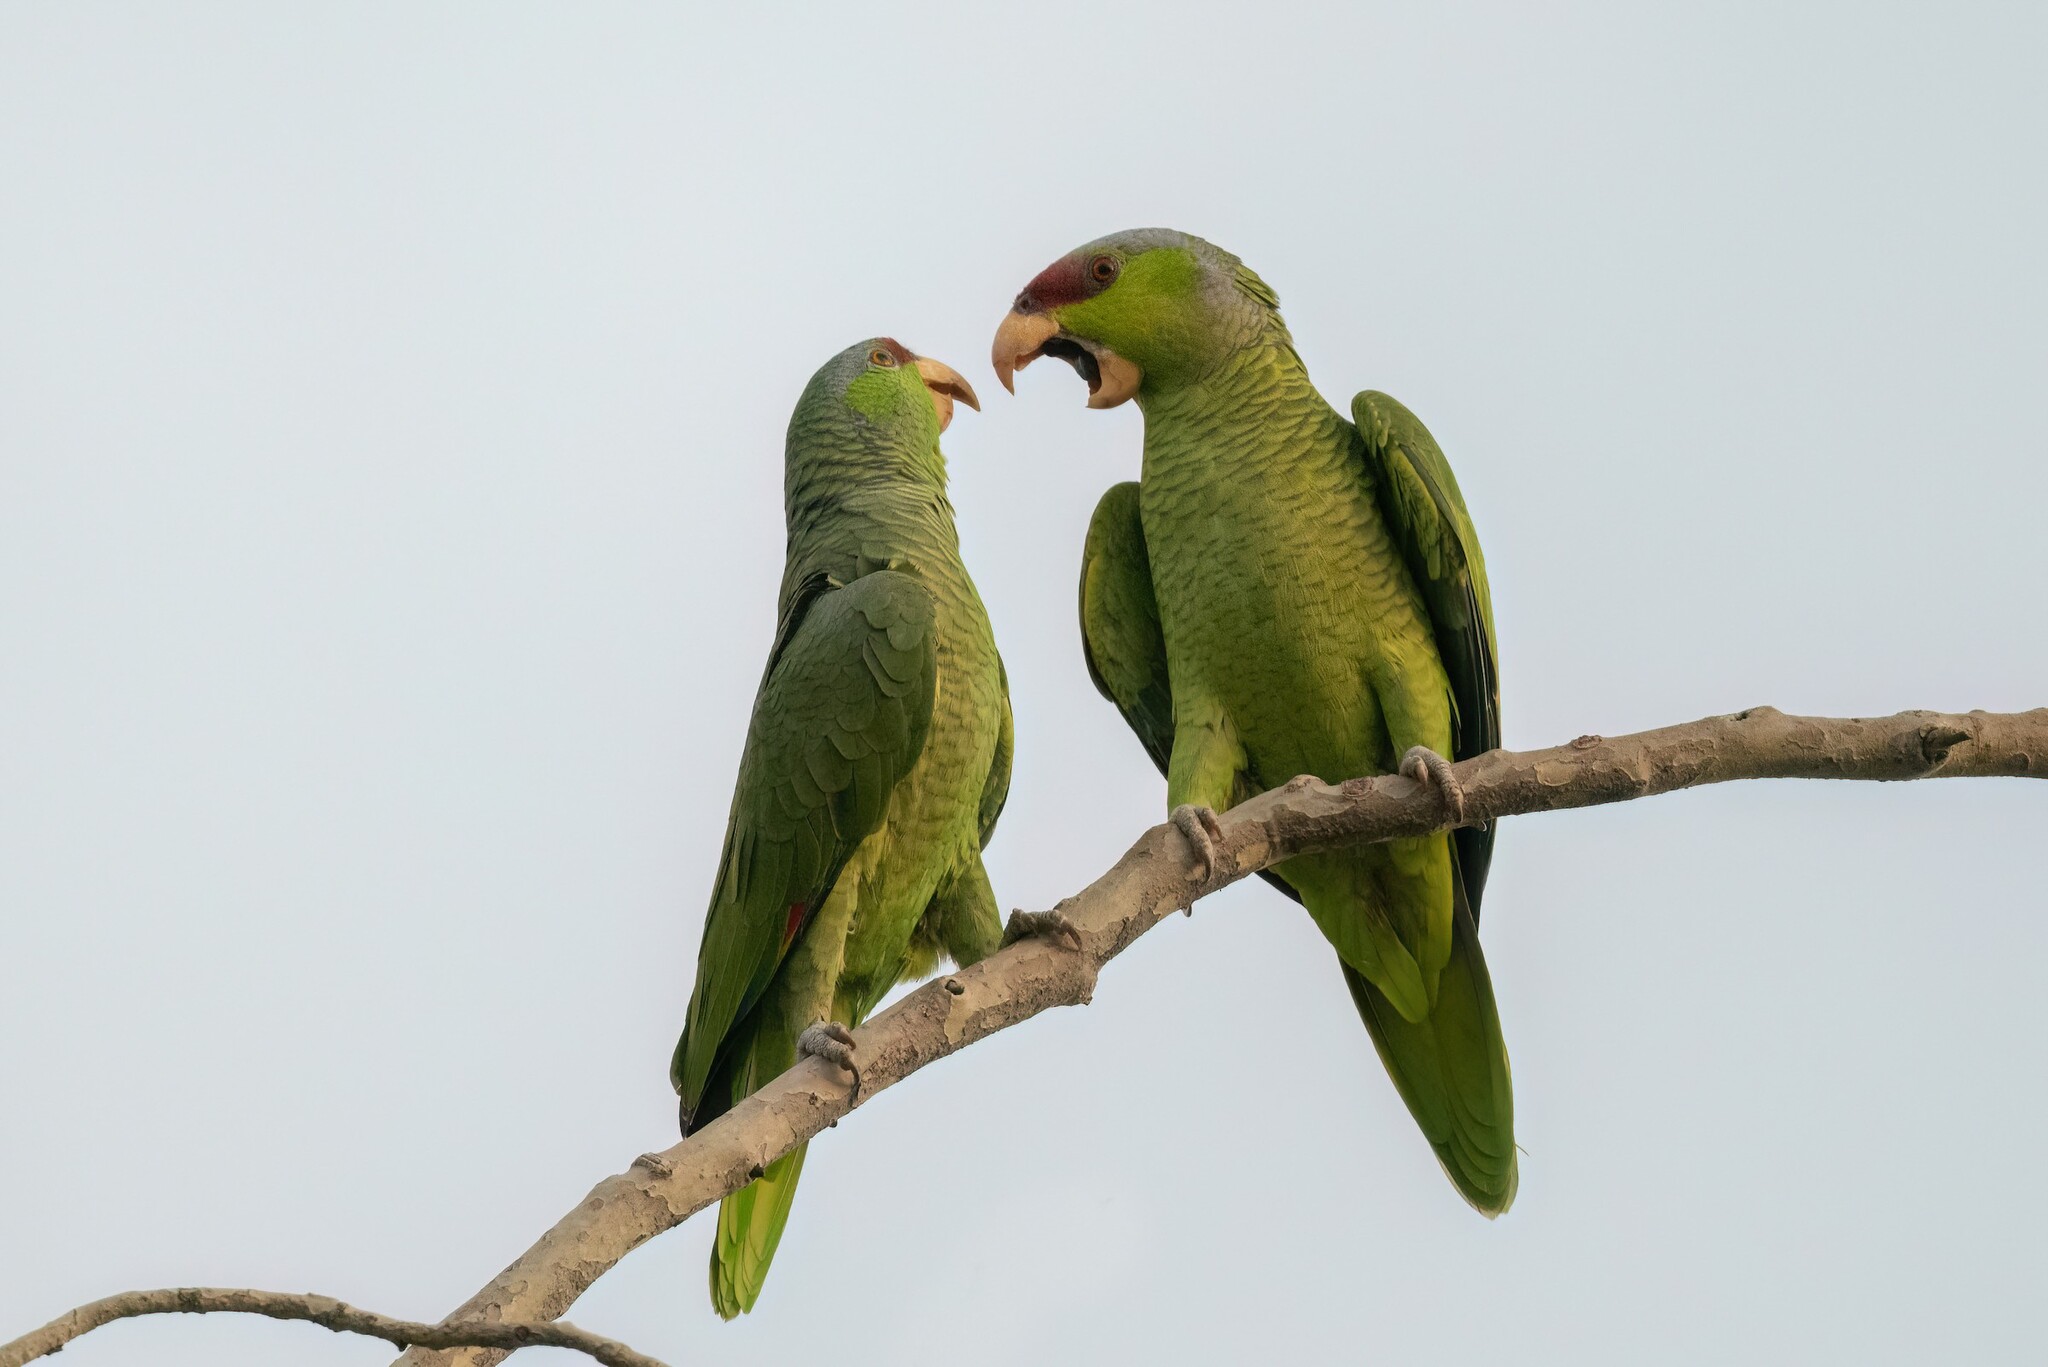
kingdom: Animalia
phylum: Chordata
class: Aves
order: Psittaciformes
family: Psittacidae
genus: Amazona
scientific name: Amazona finschi
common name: Lilac-crowned amazon
